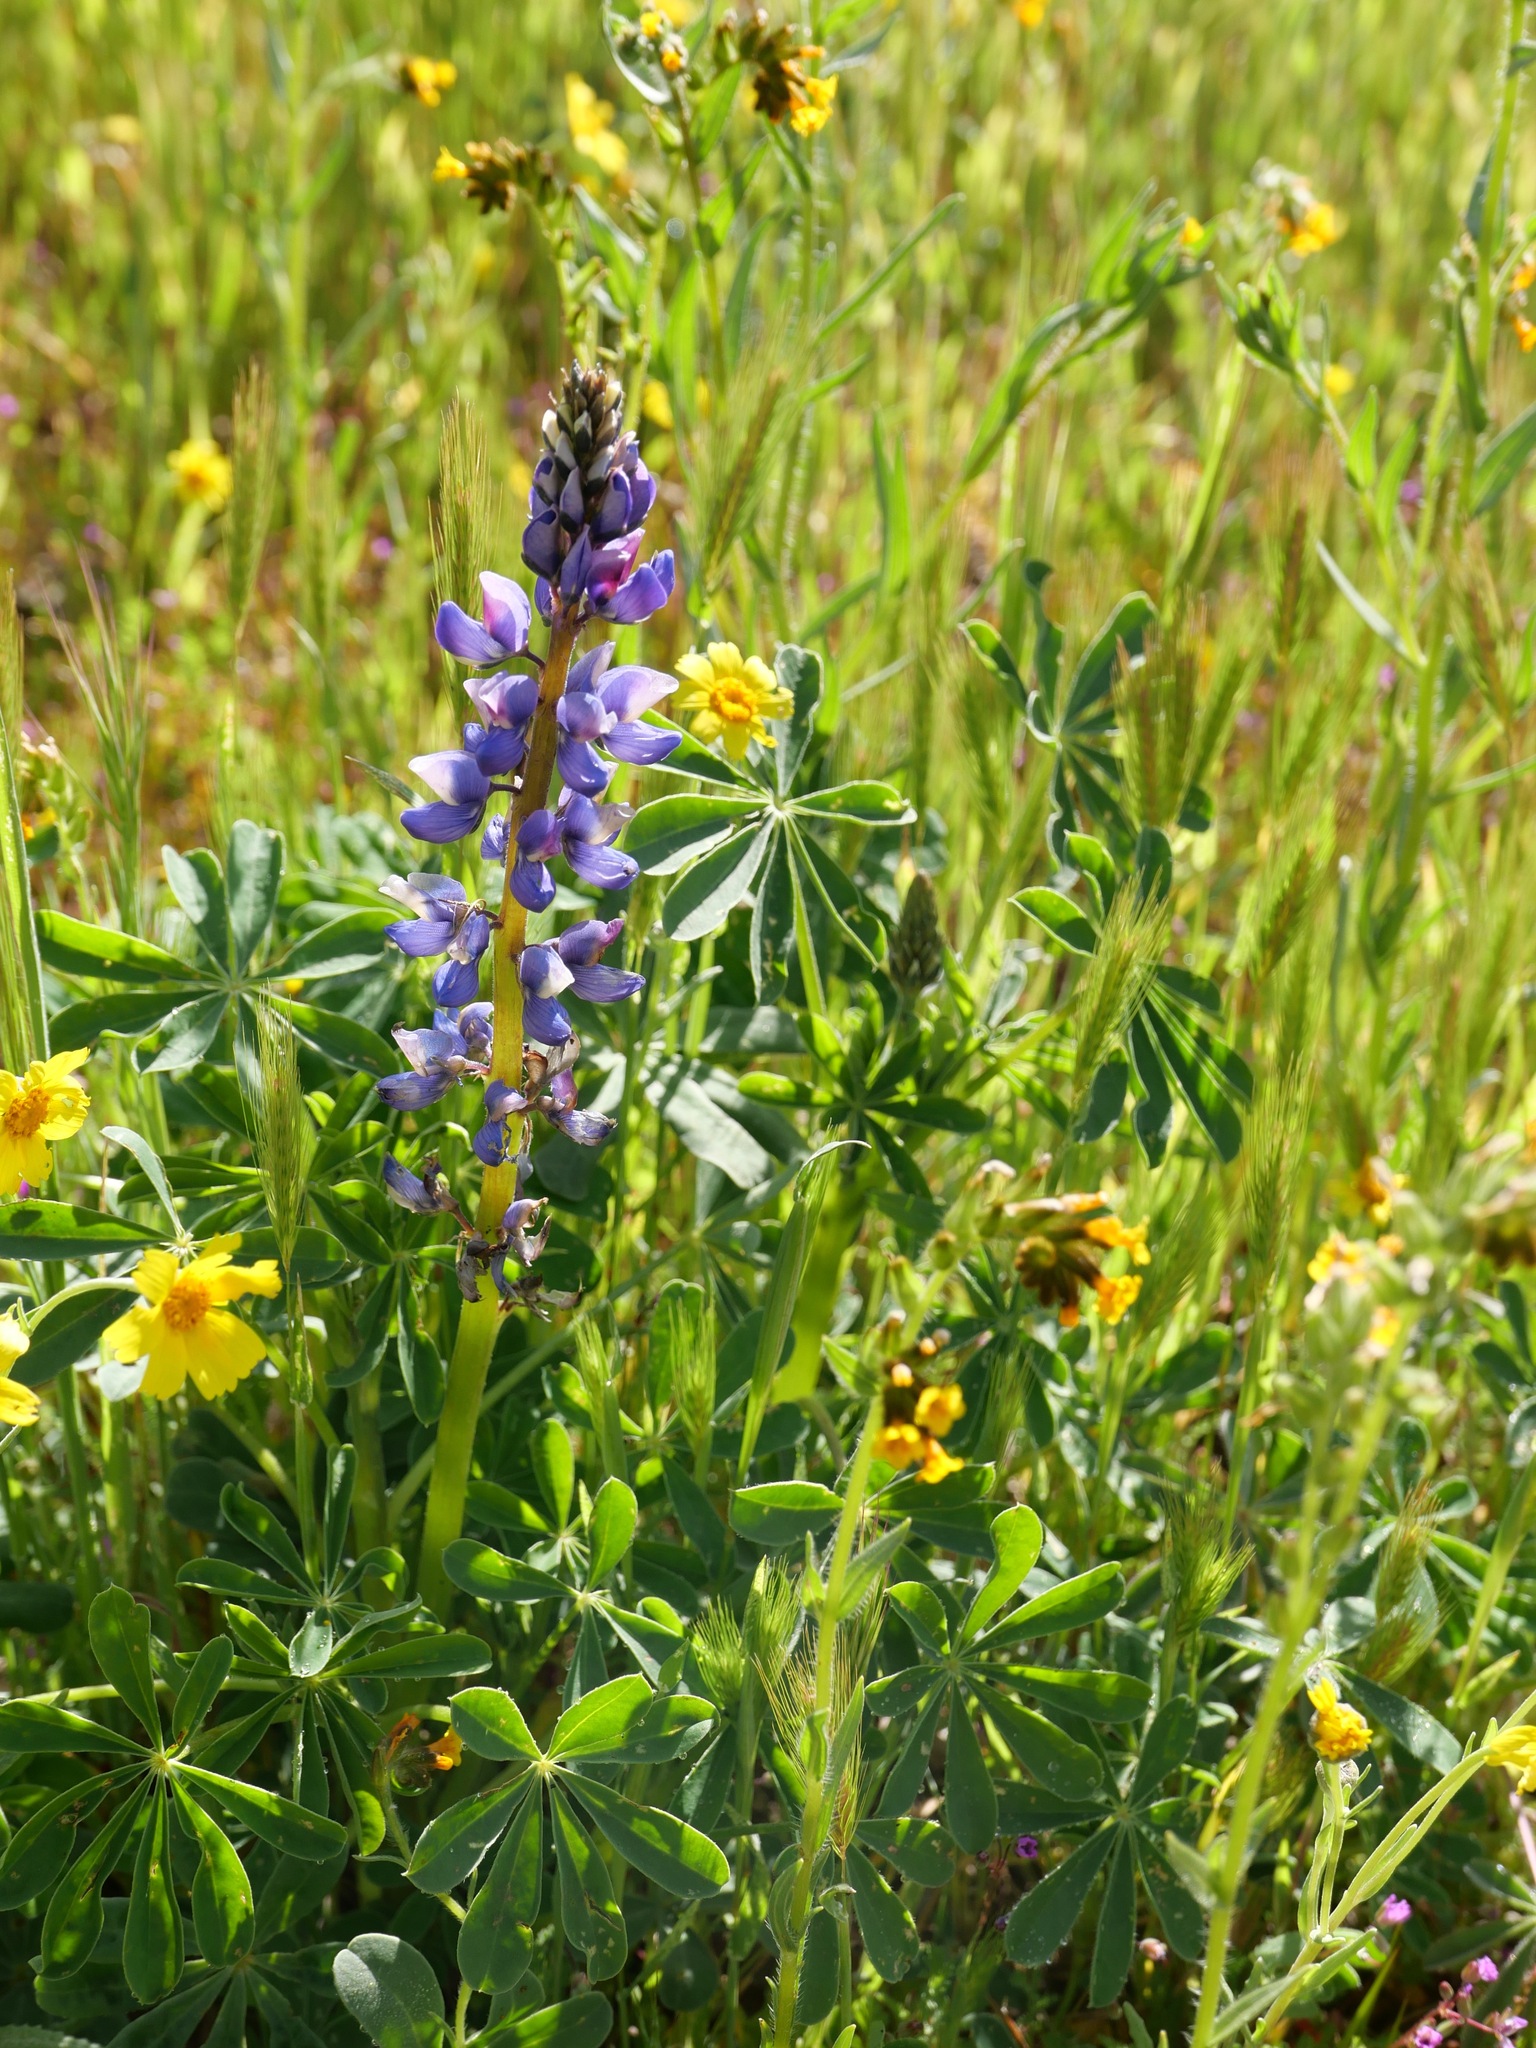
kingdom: Plantae
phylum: Tracheophyta
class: Magnoliopsida
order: Fabales
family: Fabaceae
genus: Lupinus
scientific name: Lupinus succulentus
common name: Arroyo lupine
